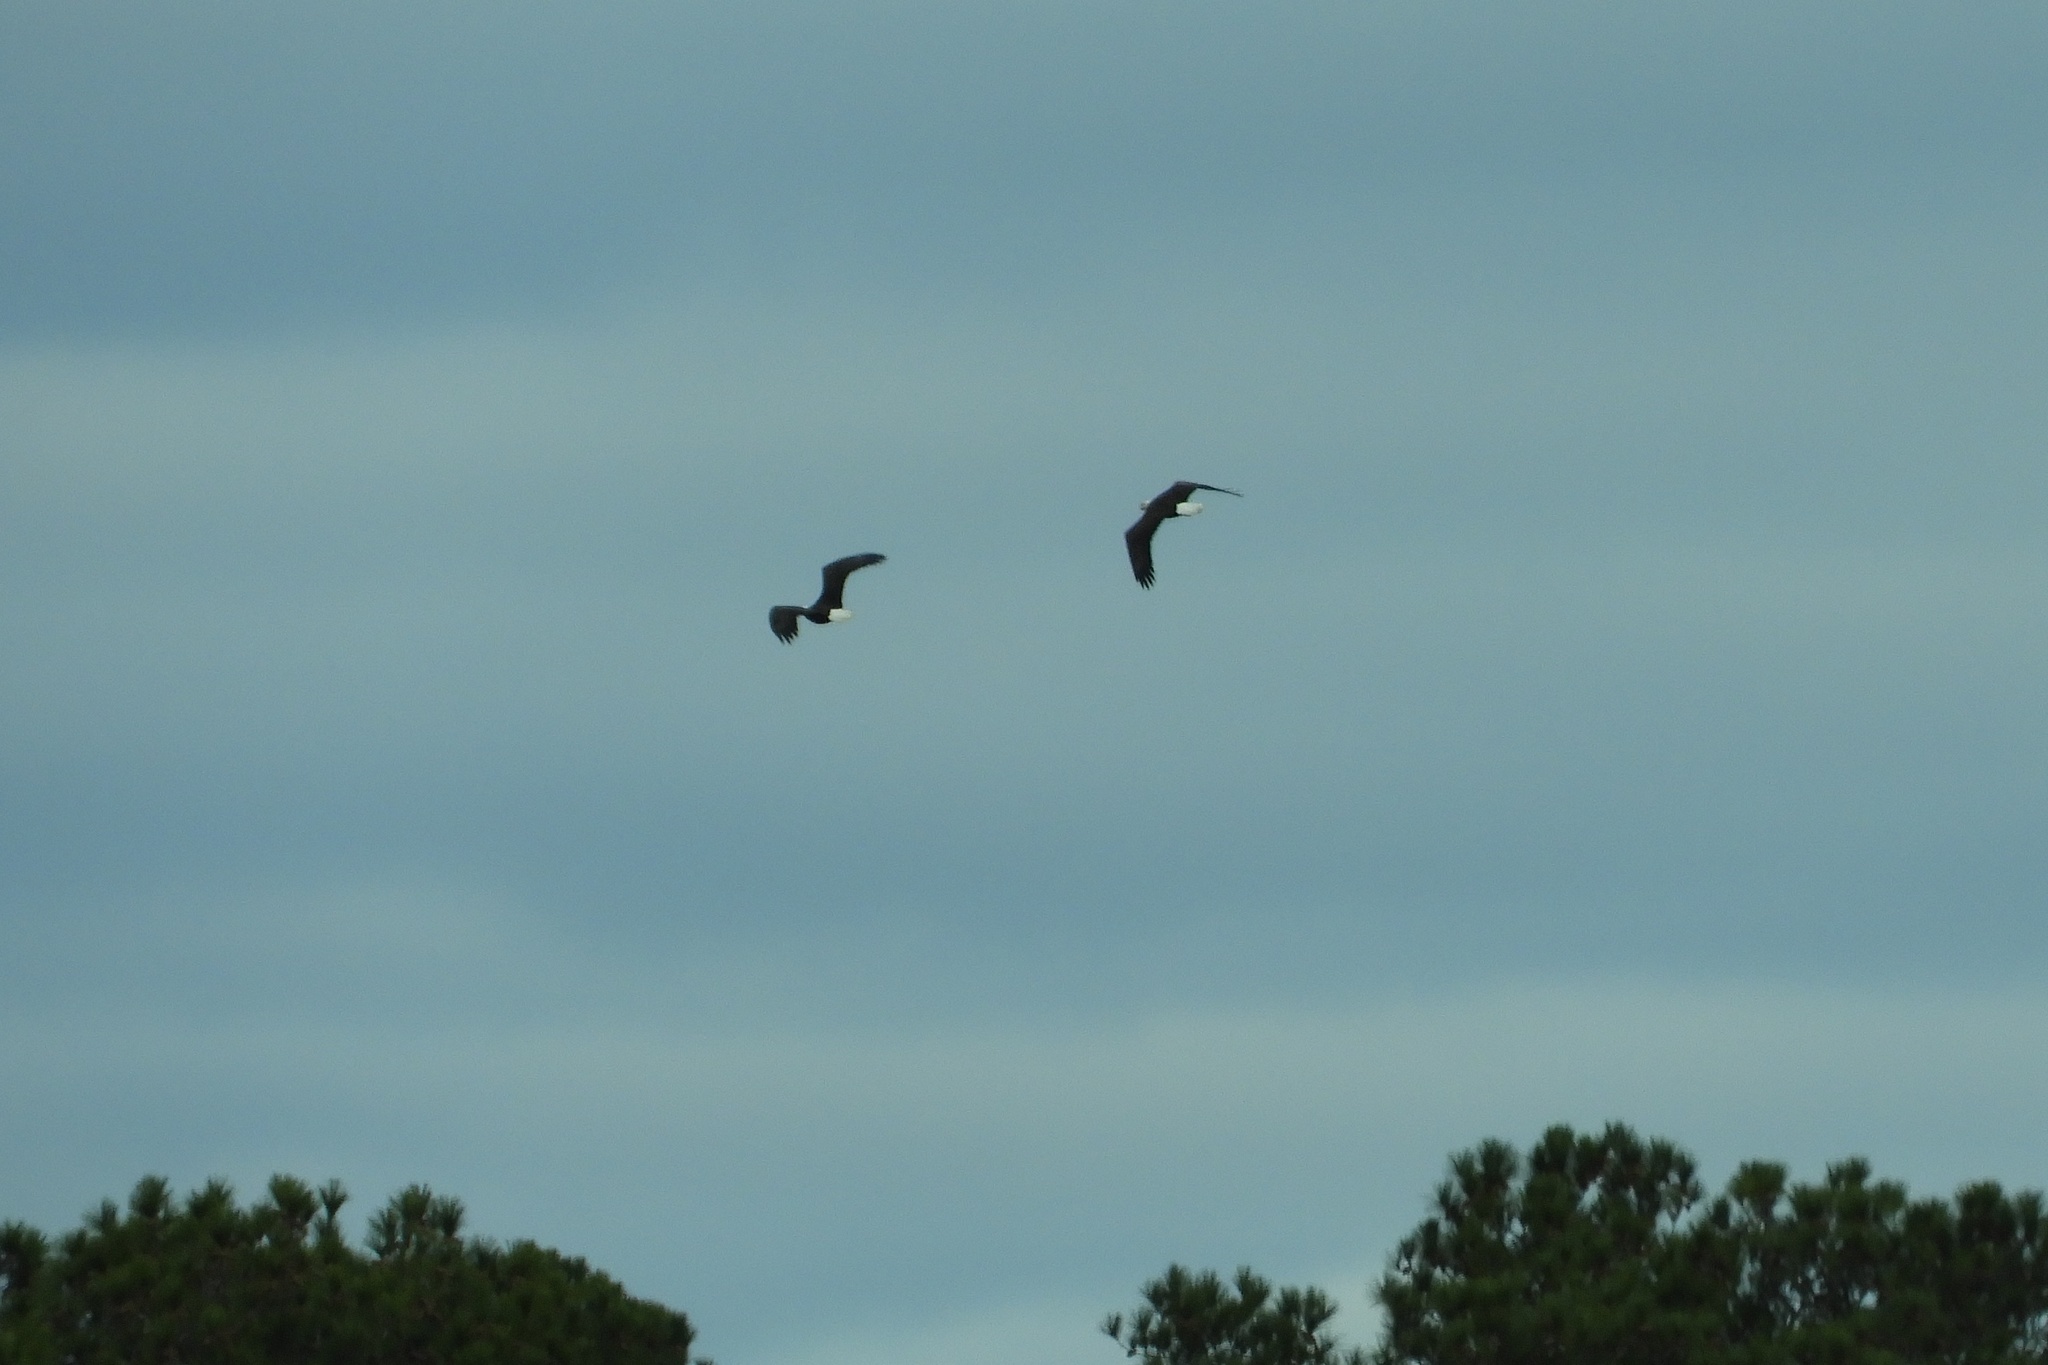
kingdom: Animalia
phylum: Chordata
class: Aves
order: Accipitriformes
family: Accipitridae
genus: Haliaeetus
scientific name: Haliaeetus leucocephalus
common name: Bald eagle
